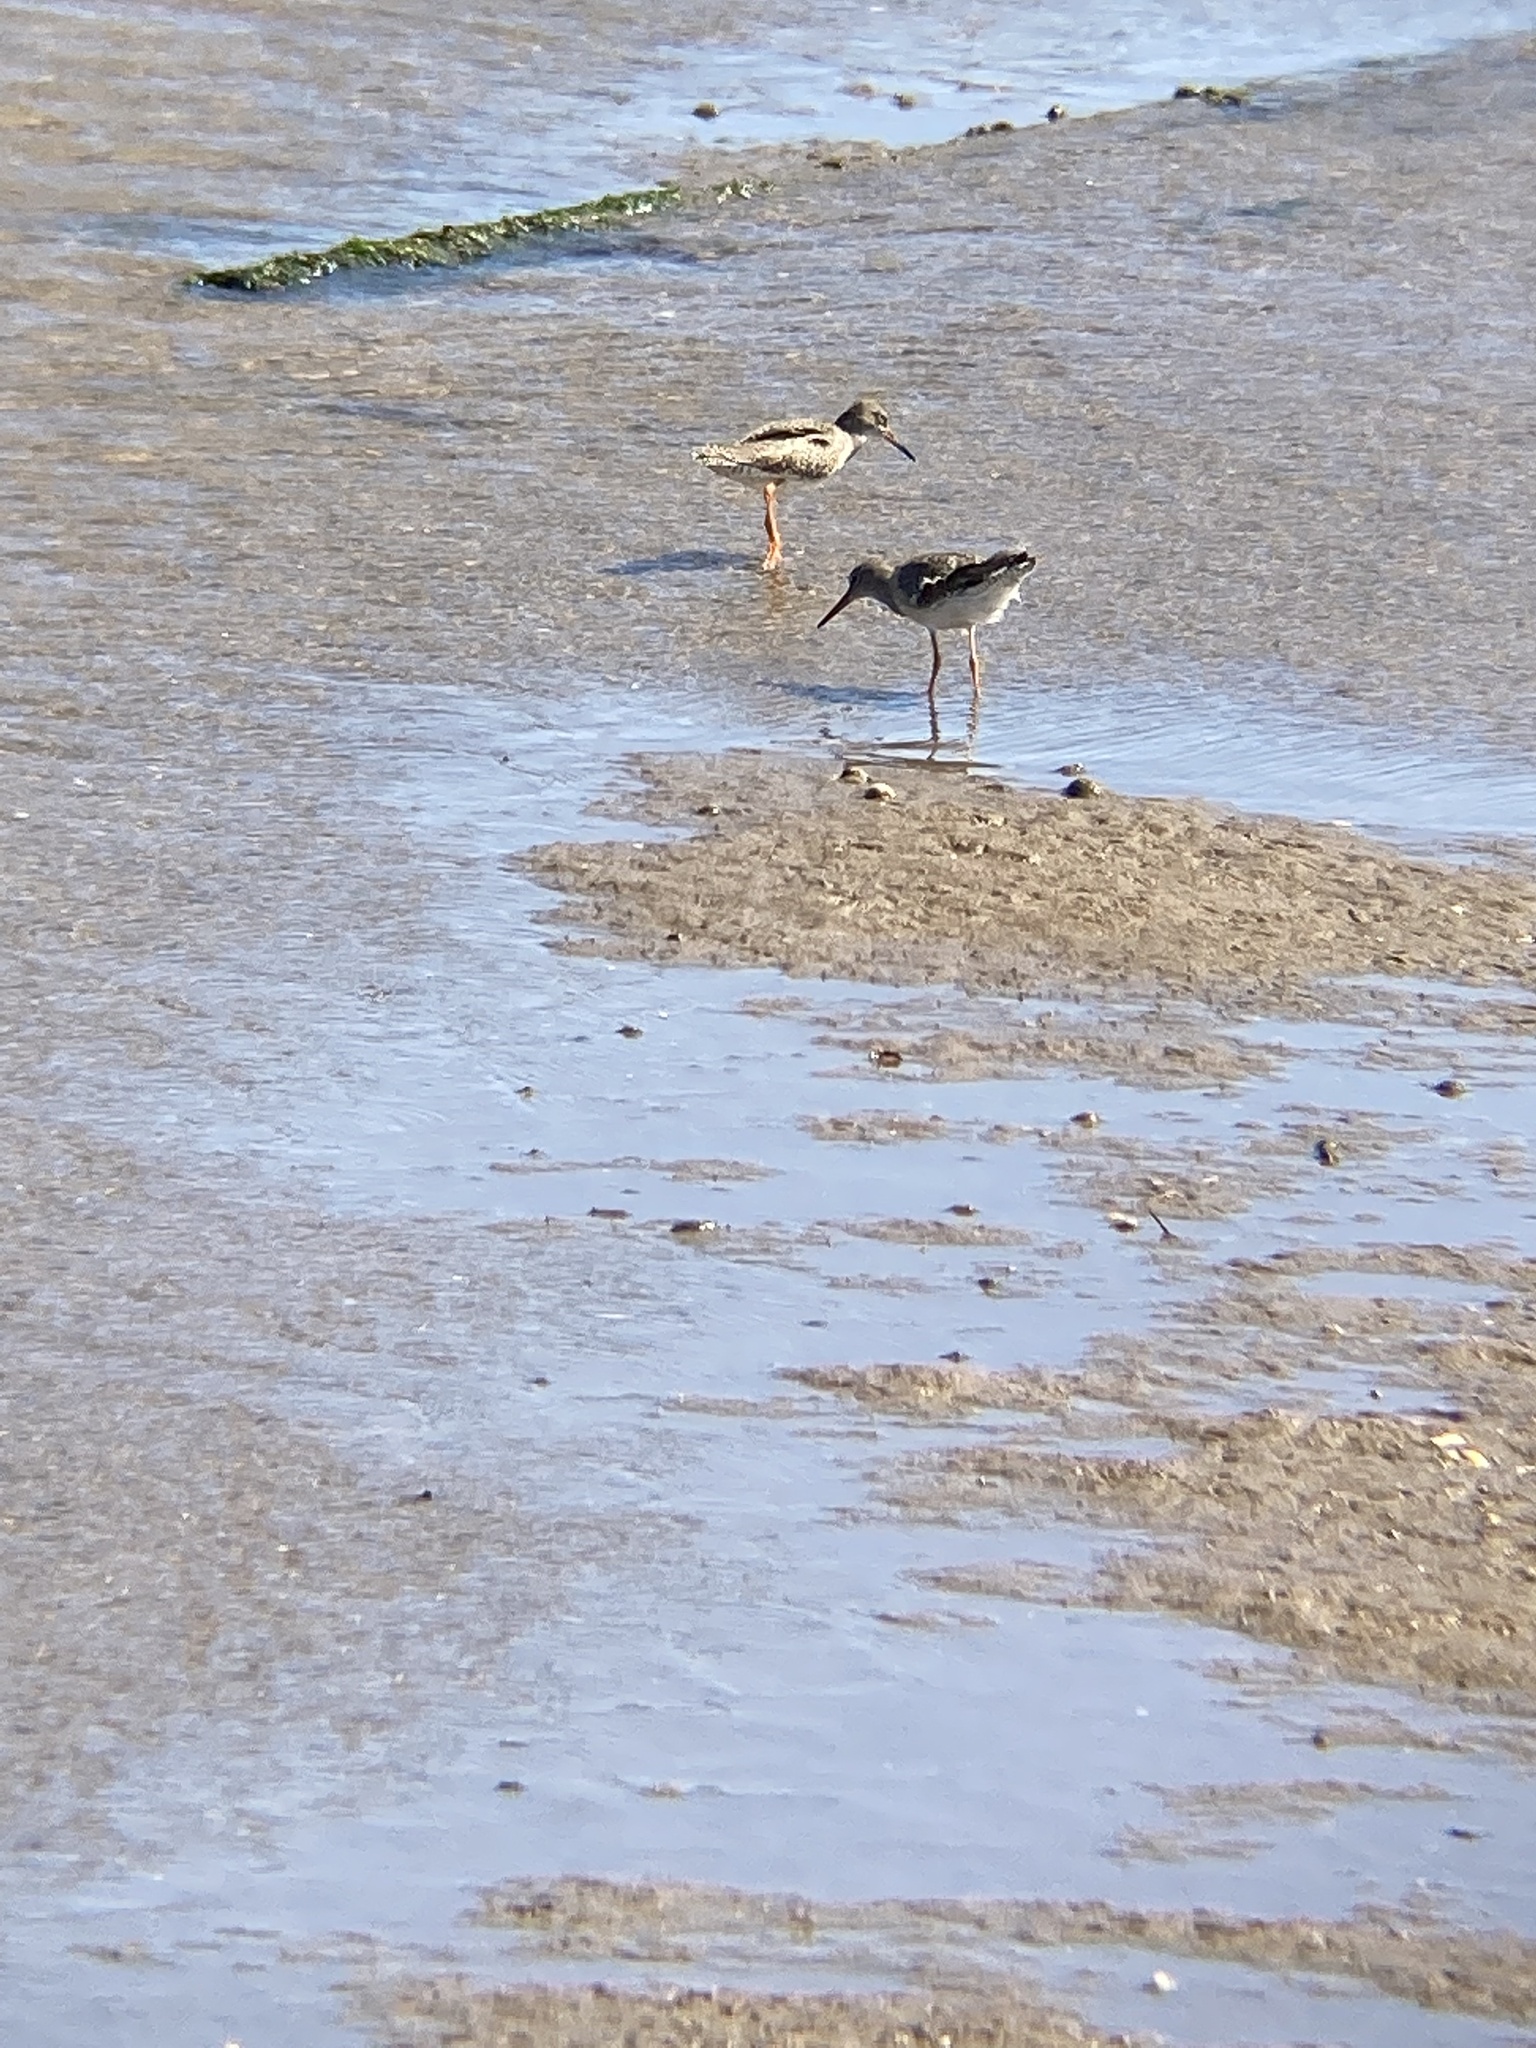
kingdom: Animalia
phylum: Chordata
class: Aves
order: Charadriiformes
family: Scolopacidae
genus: Tringa
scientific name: Tringa totanus
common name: Common redshank
